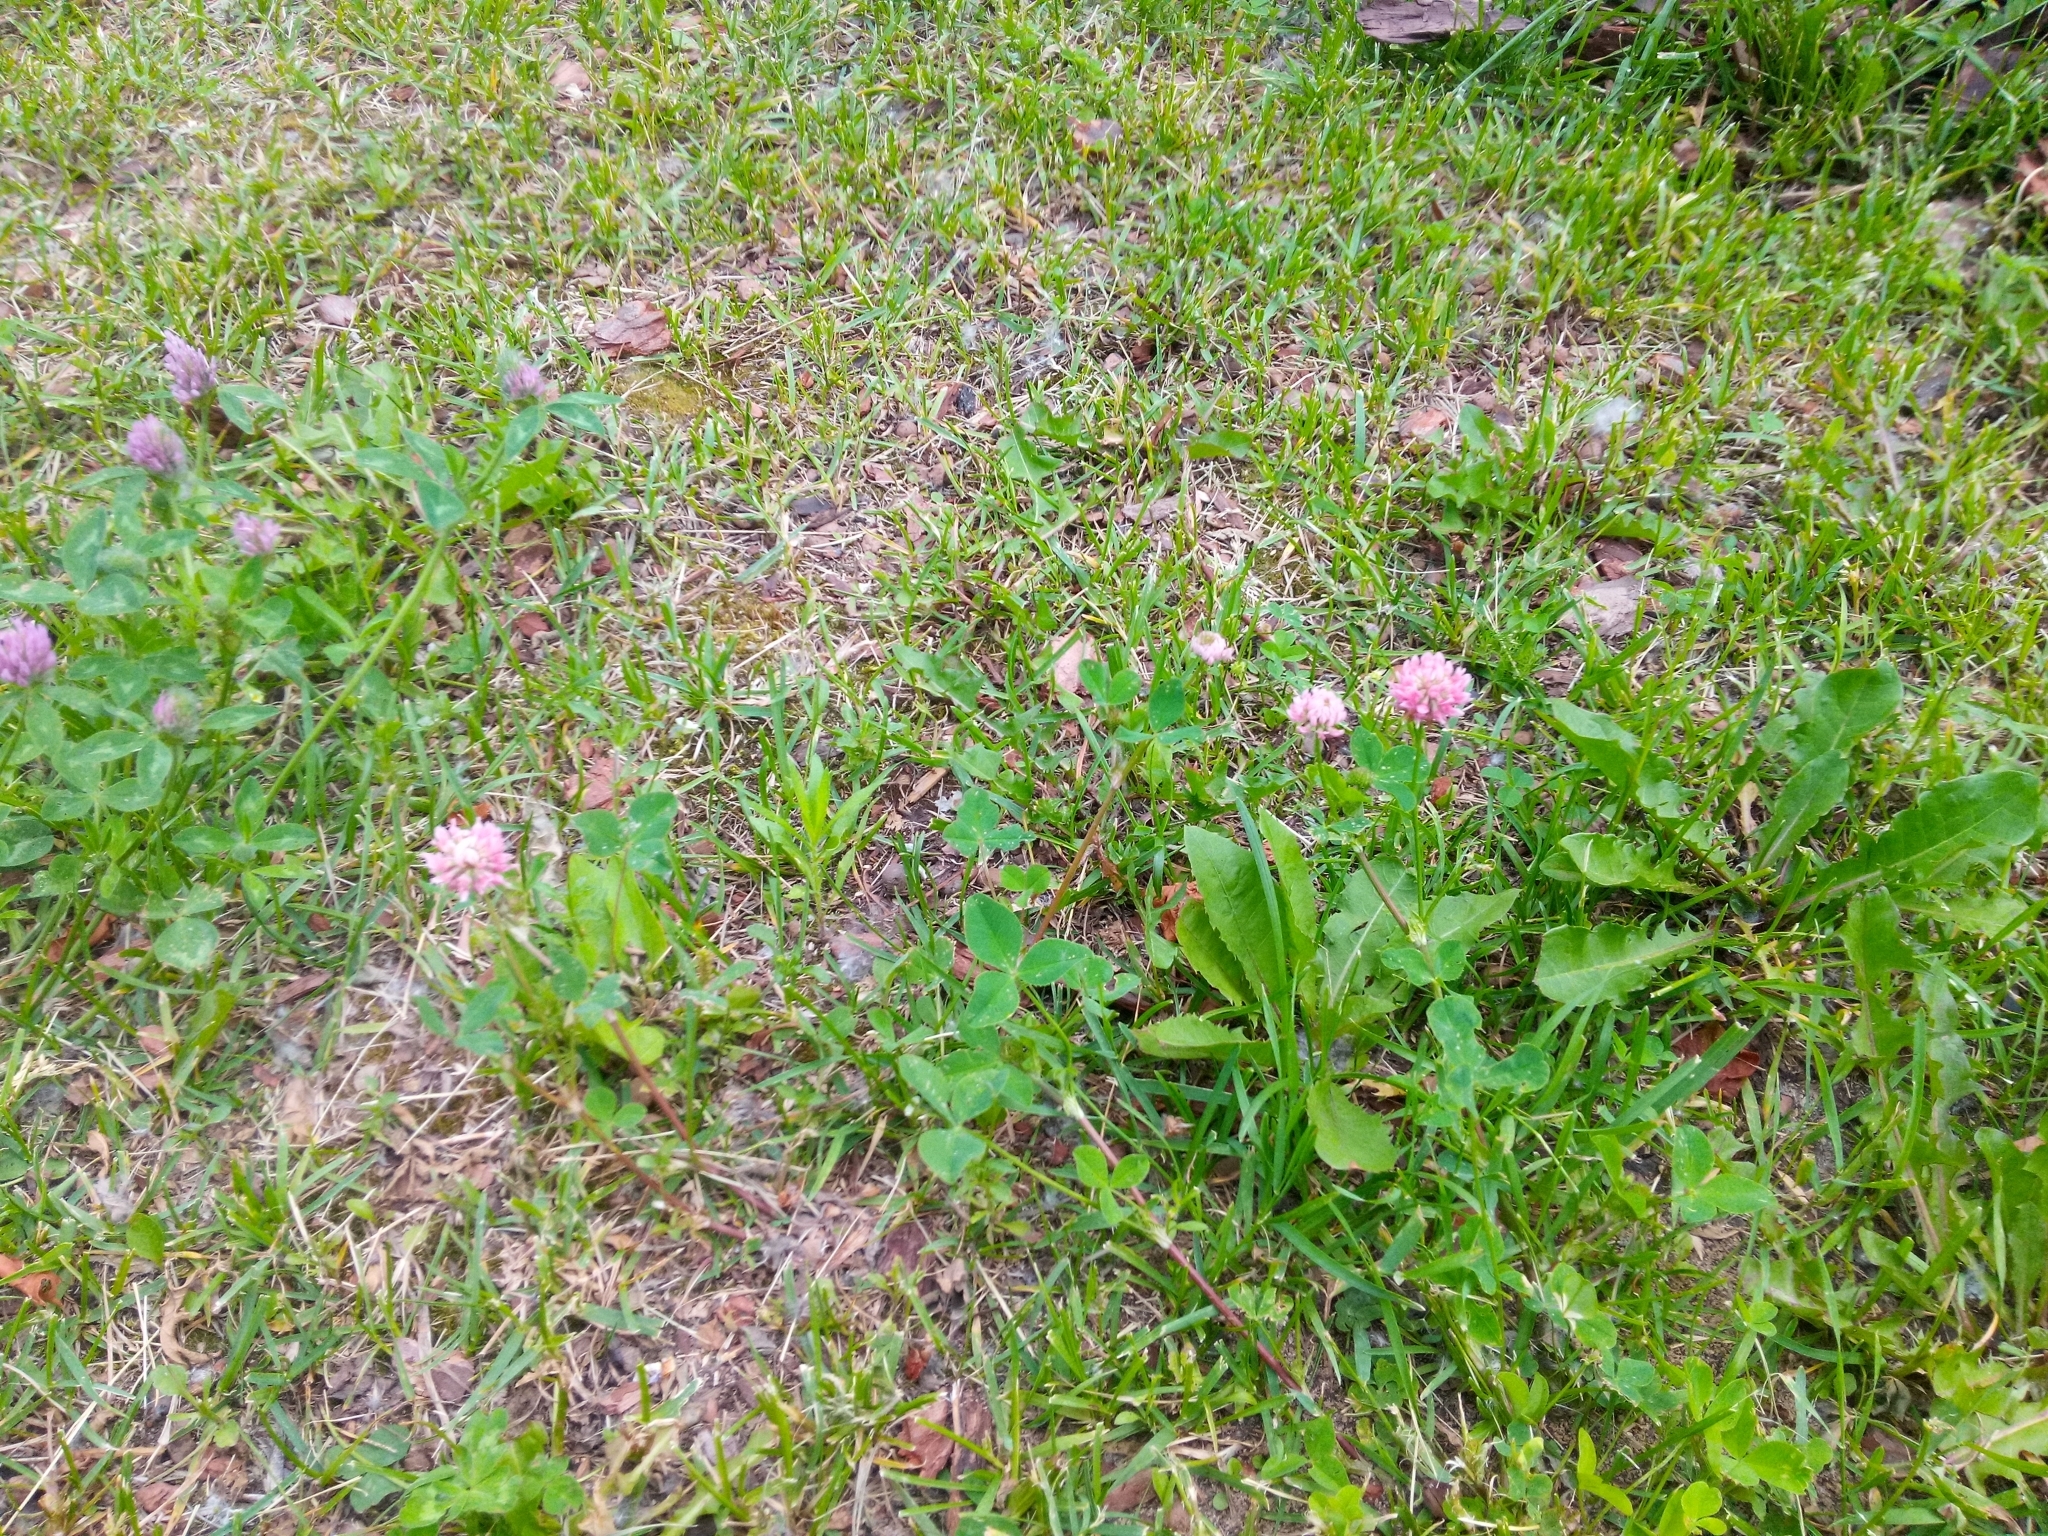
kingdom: Plantae
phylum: Tracheophyta
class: Magnoliopsida
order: Fabales
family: Fabaceae
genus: Trifolium
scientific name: Trifolium hybridum
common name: Alsike clover
